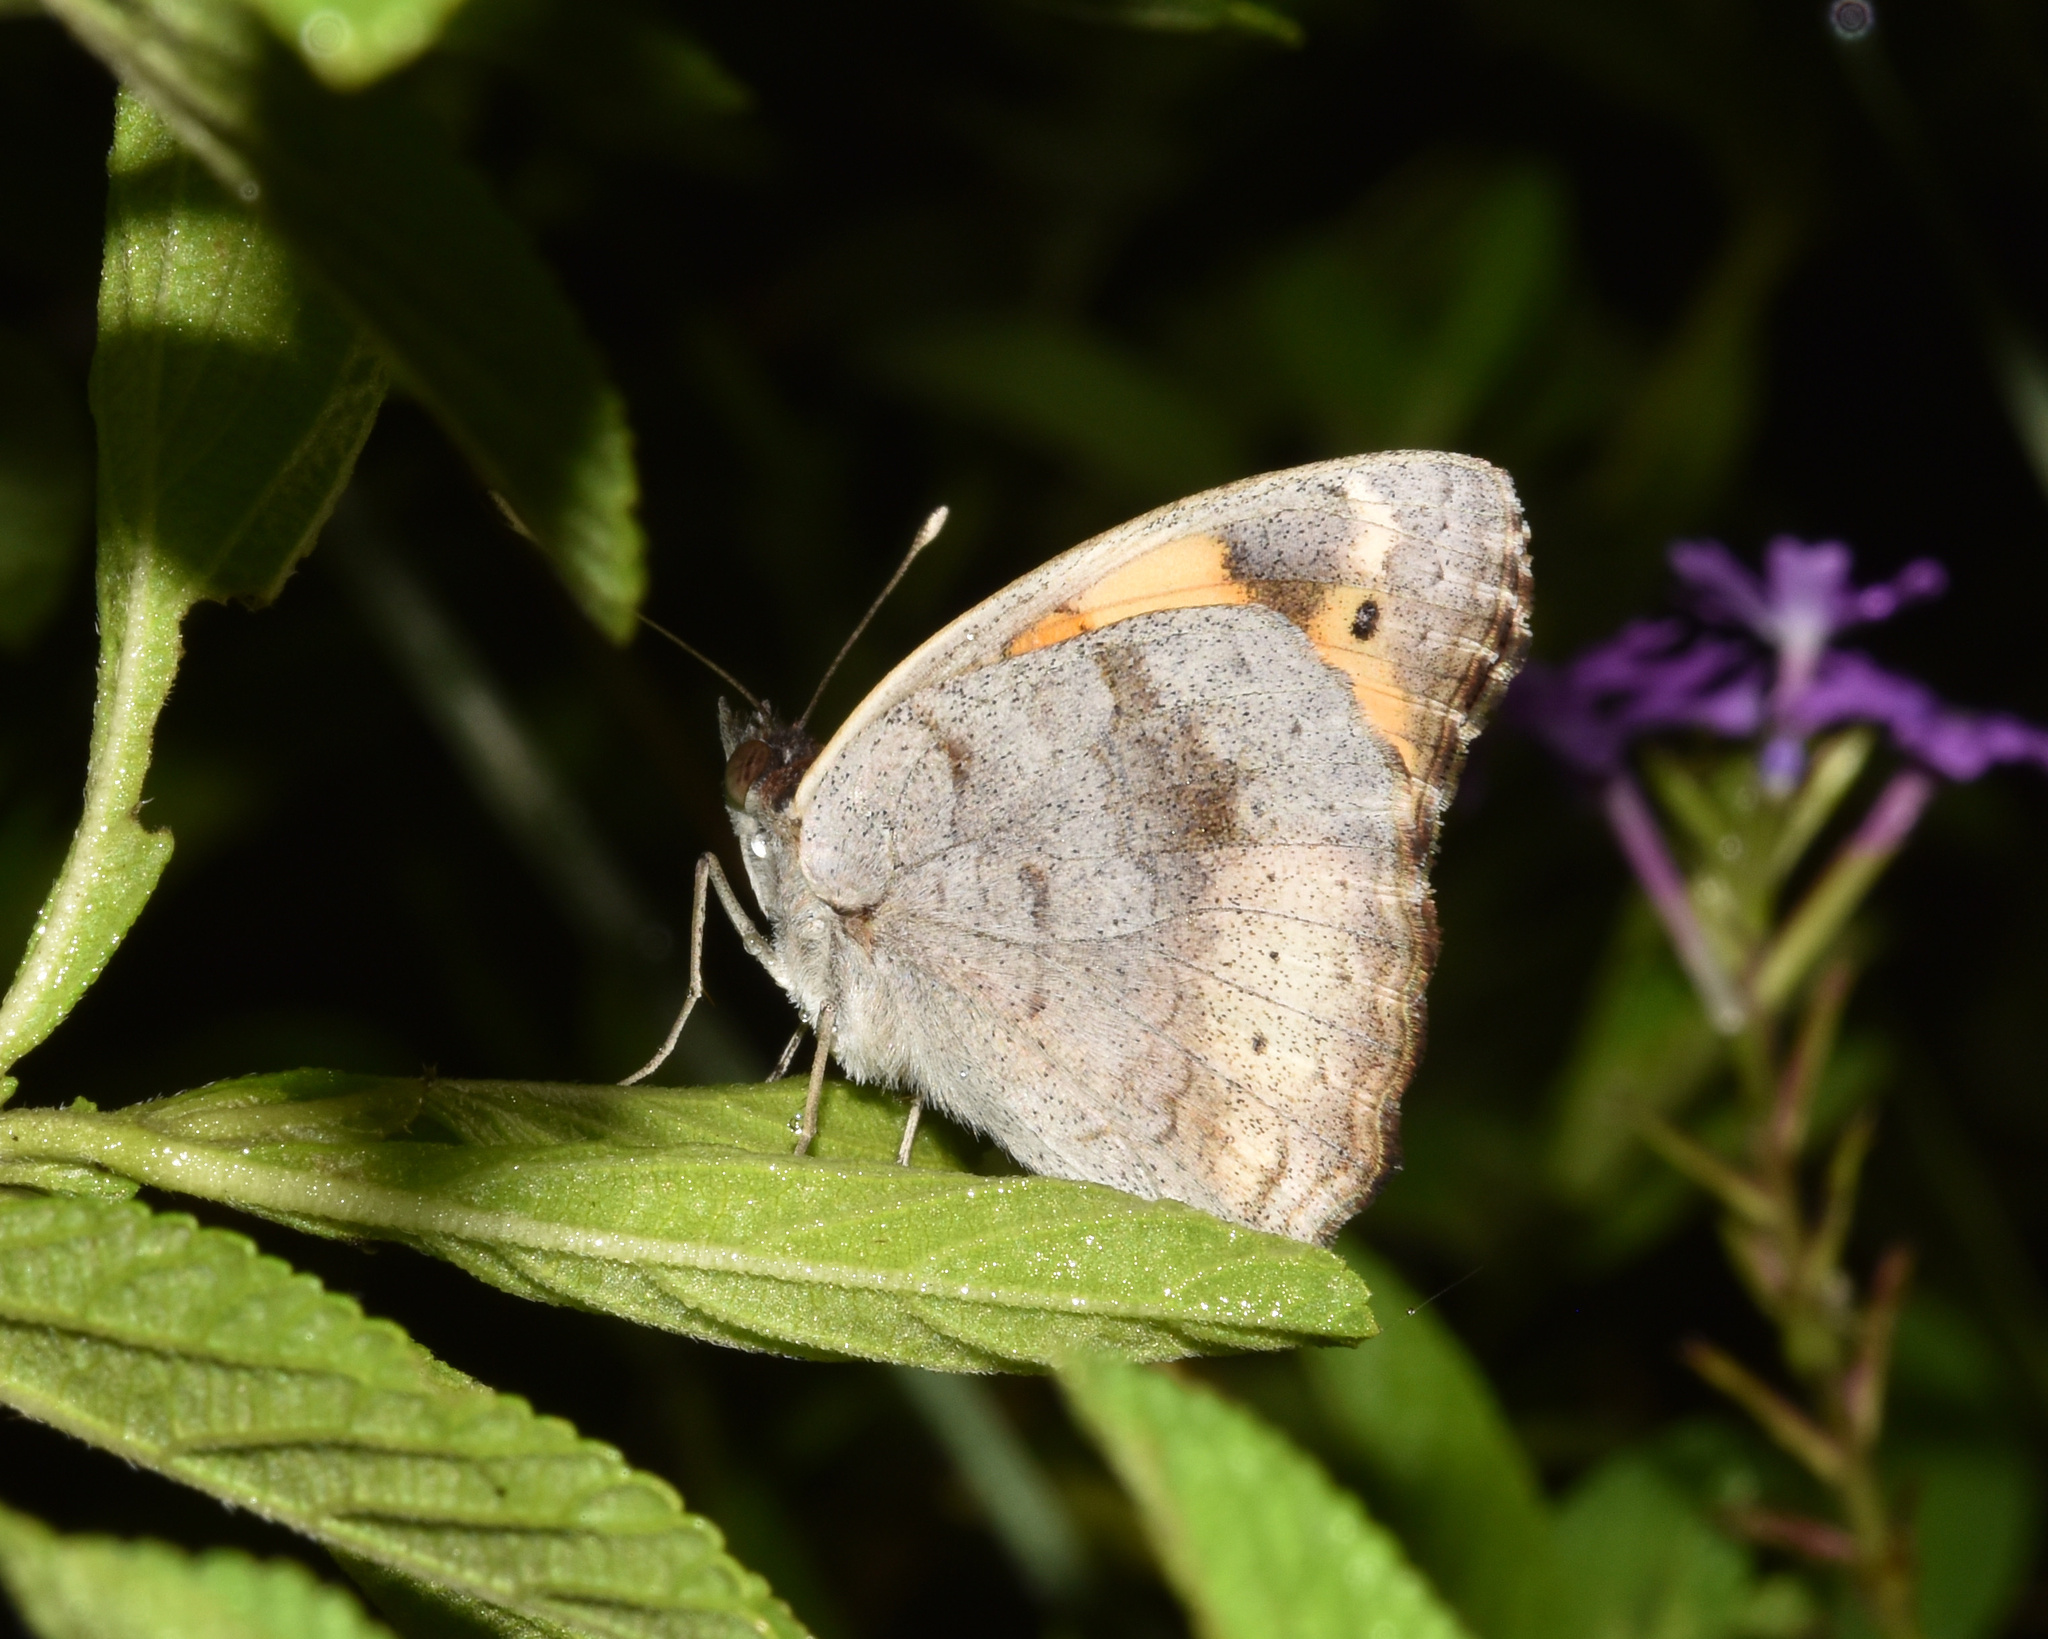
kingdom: Animalia
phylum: Arthropoda
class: Insecta
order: Lepidoptera
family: Nymphalidae
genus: Junonia
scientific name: Junonia hierta
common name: Yellow pansy
